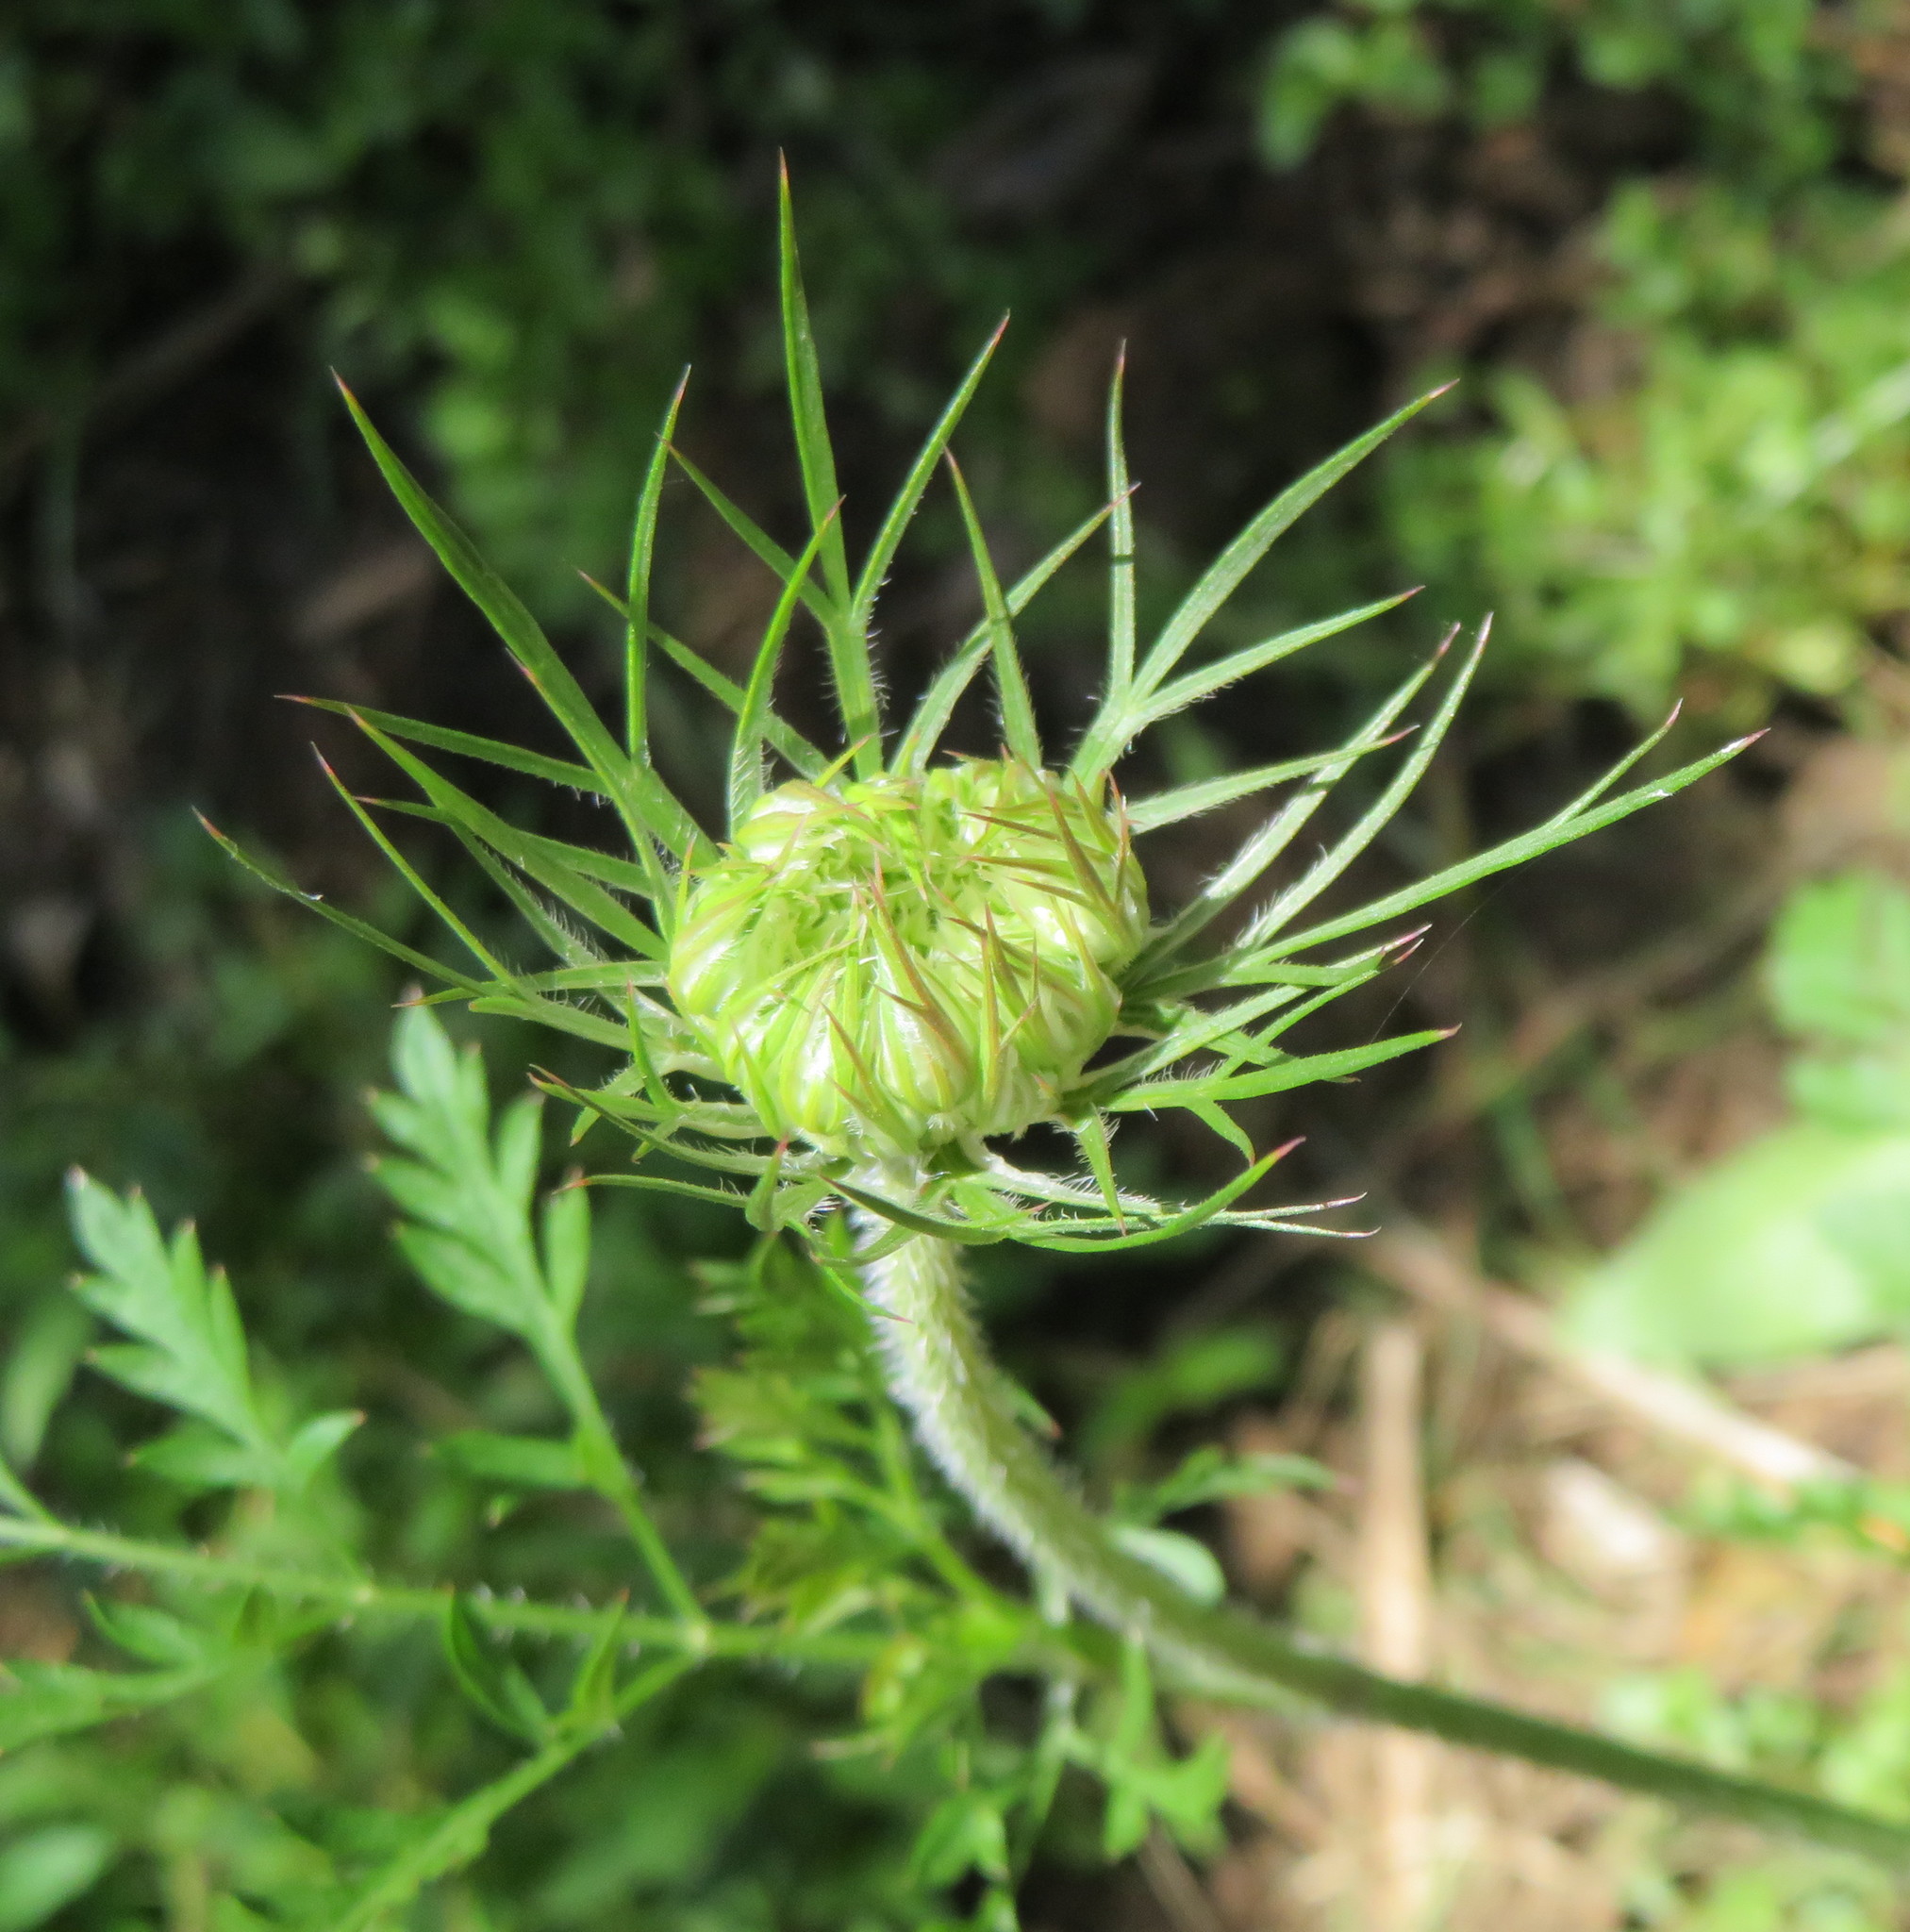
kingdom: Plantae
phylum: Tracheophyta
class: Magnoliopsida
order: Apiales
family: Apiaceae
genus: Daucus
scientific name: Daucus carota
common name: Wild carrot
